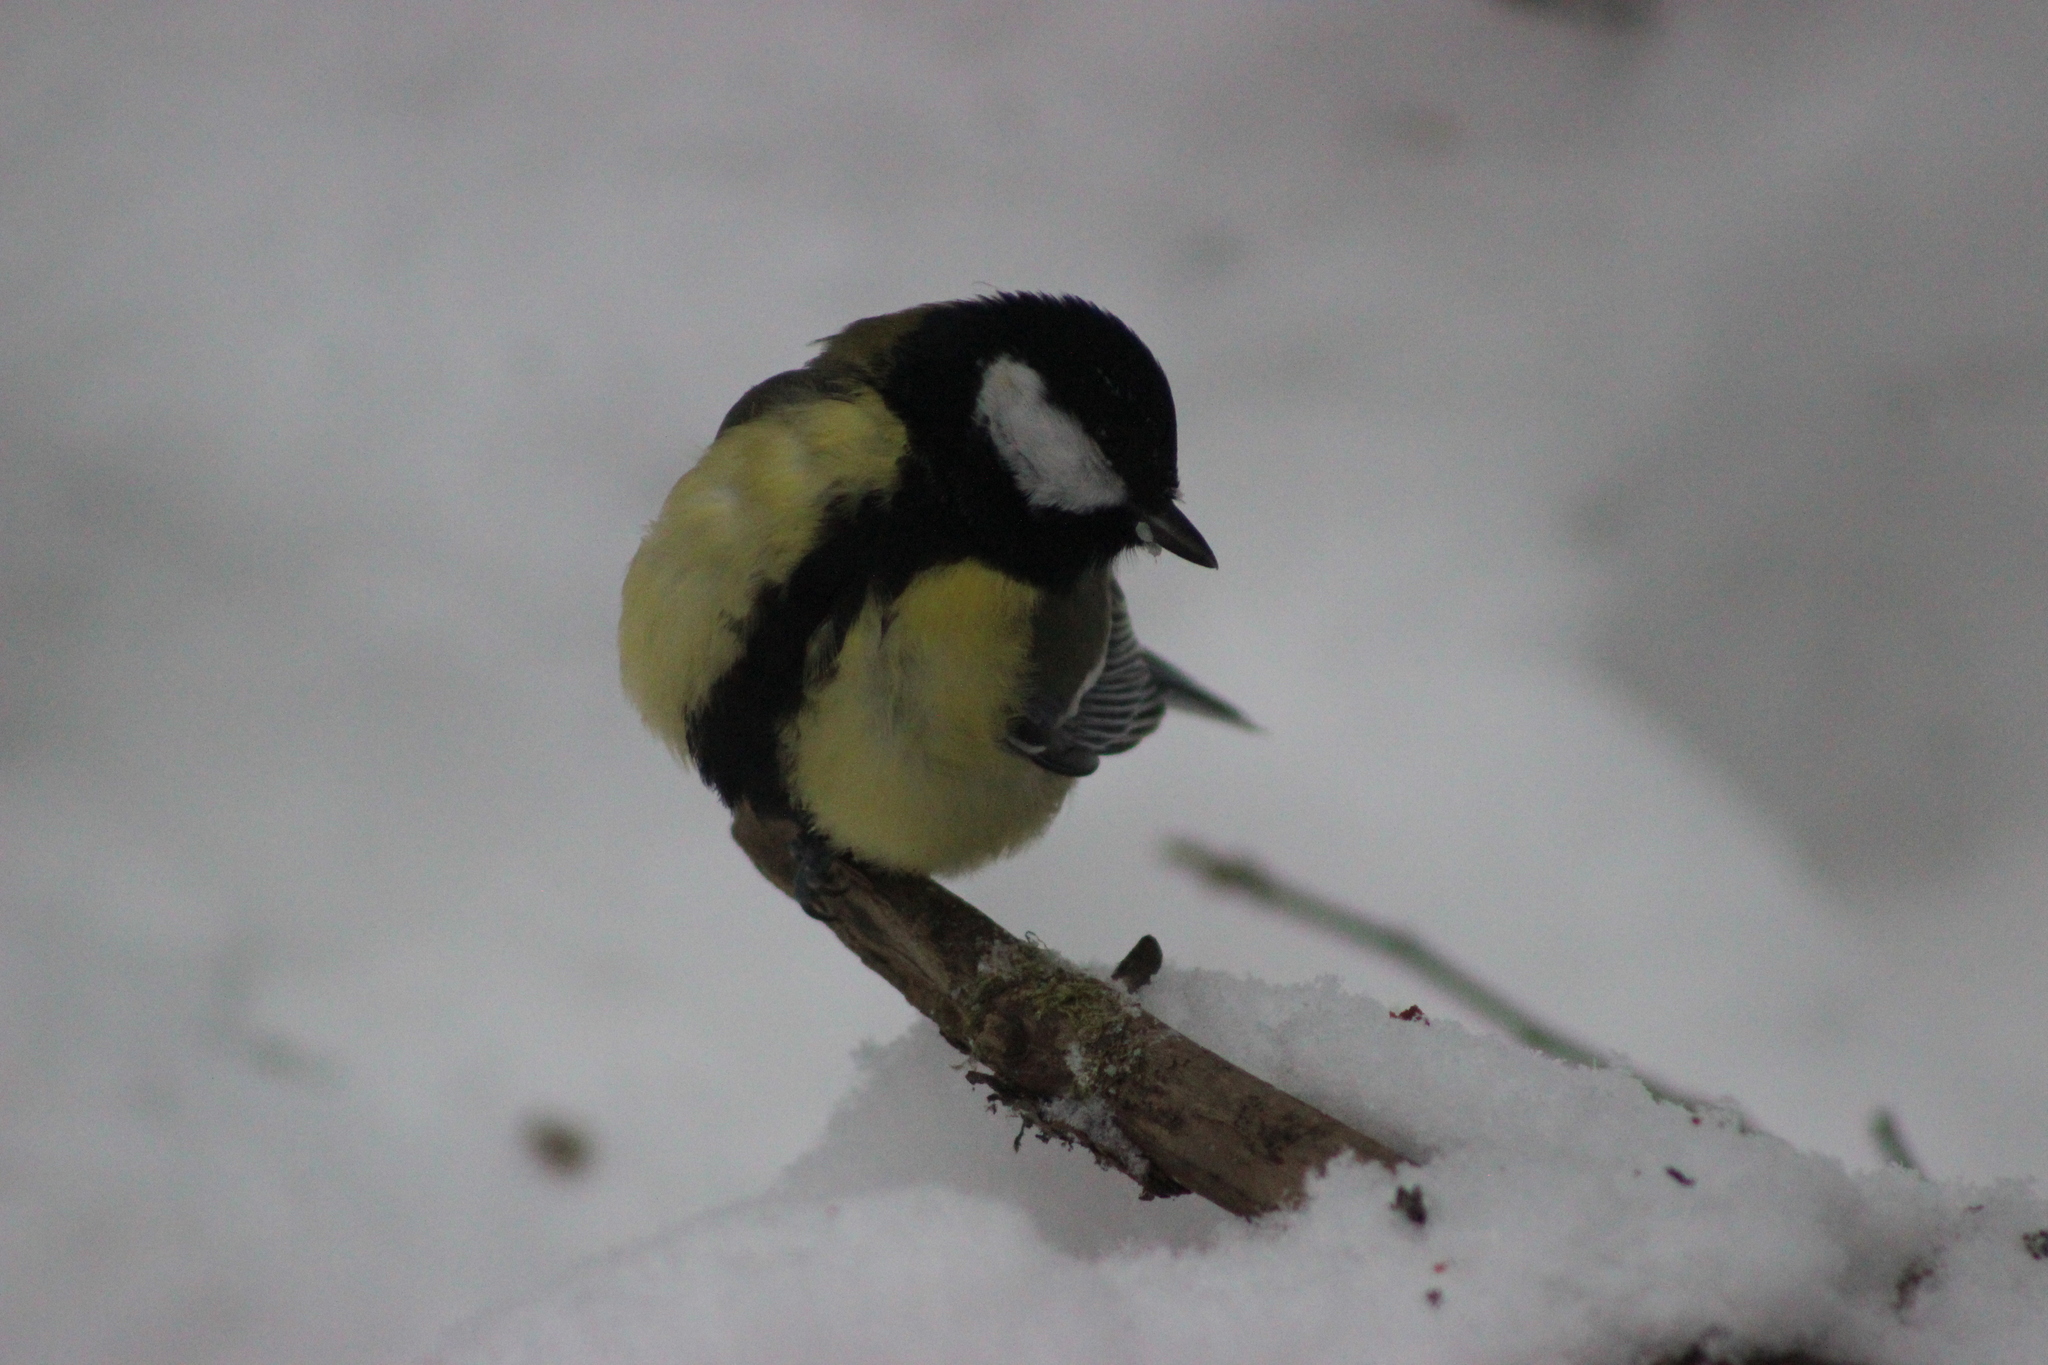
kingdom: Animalia
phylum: Chordata
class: Aves
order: Passeriformes
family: Paridae
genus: Parus
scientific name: Parus major
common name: Great tit
